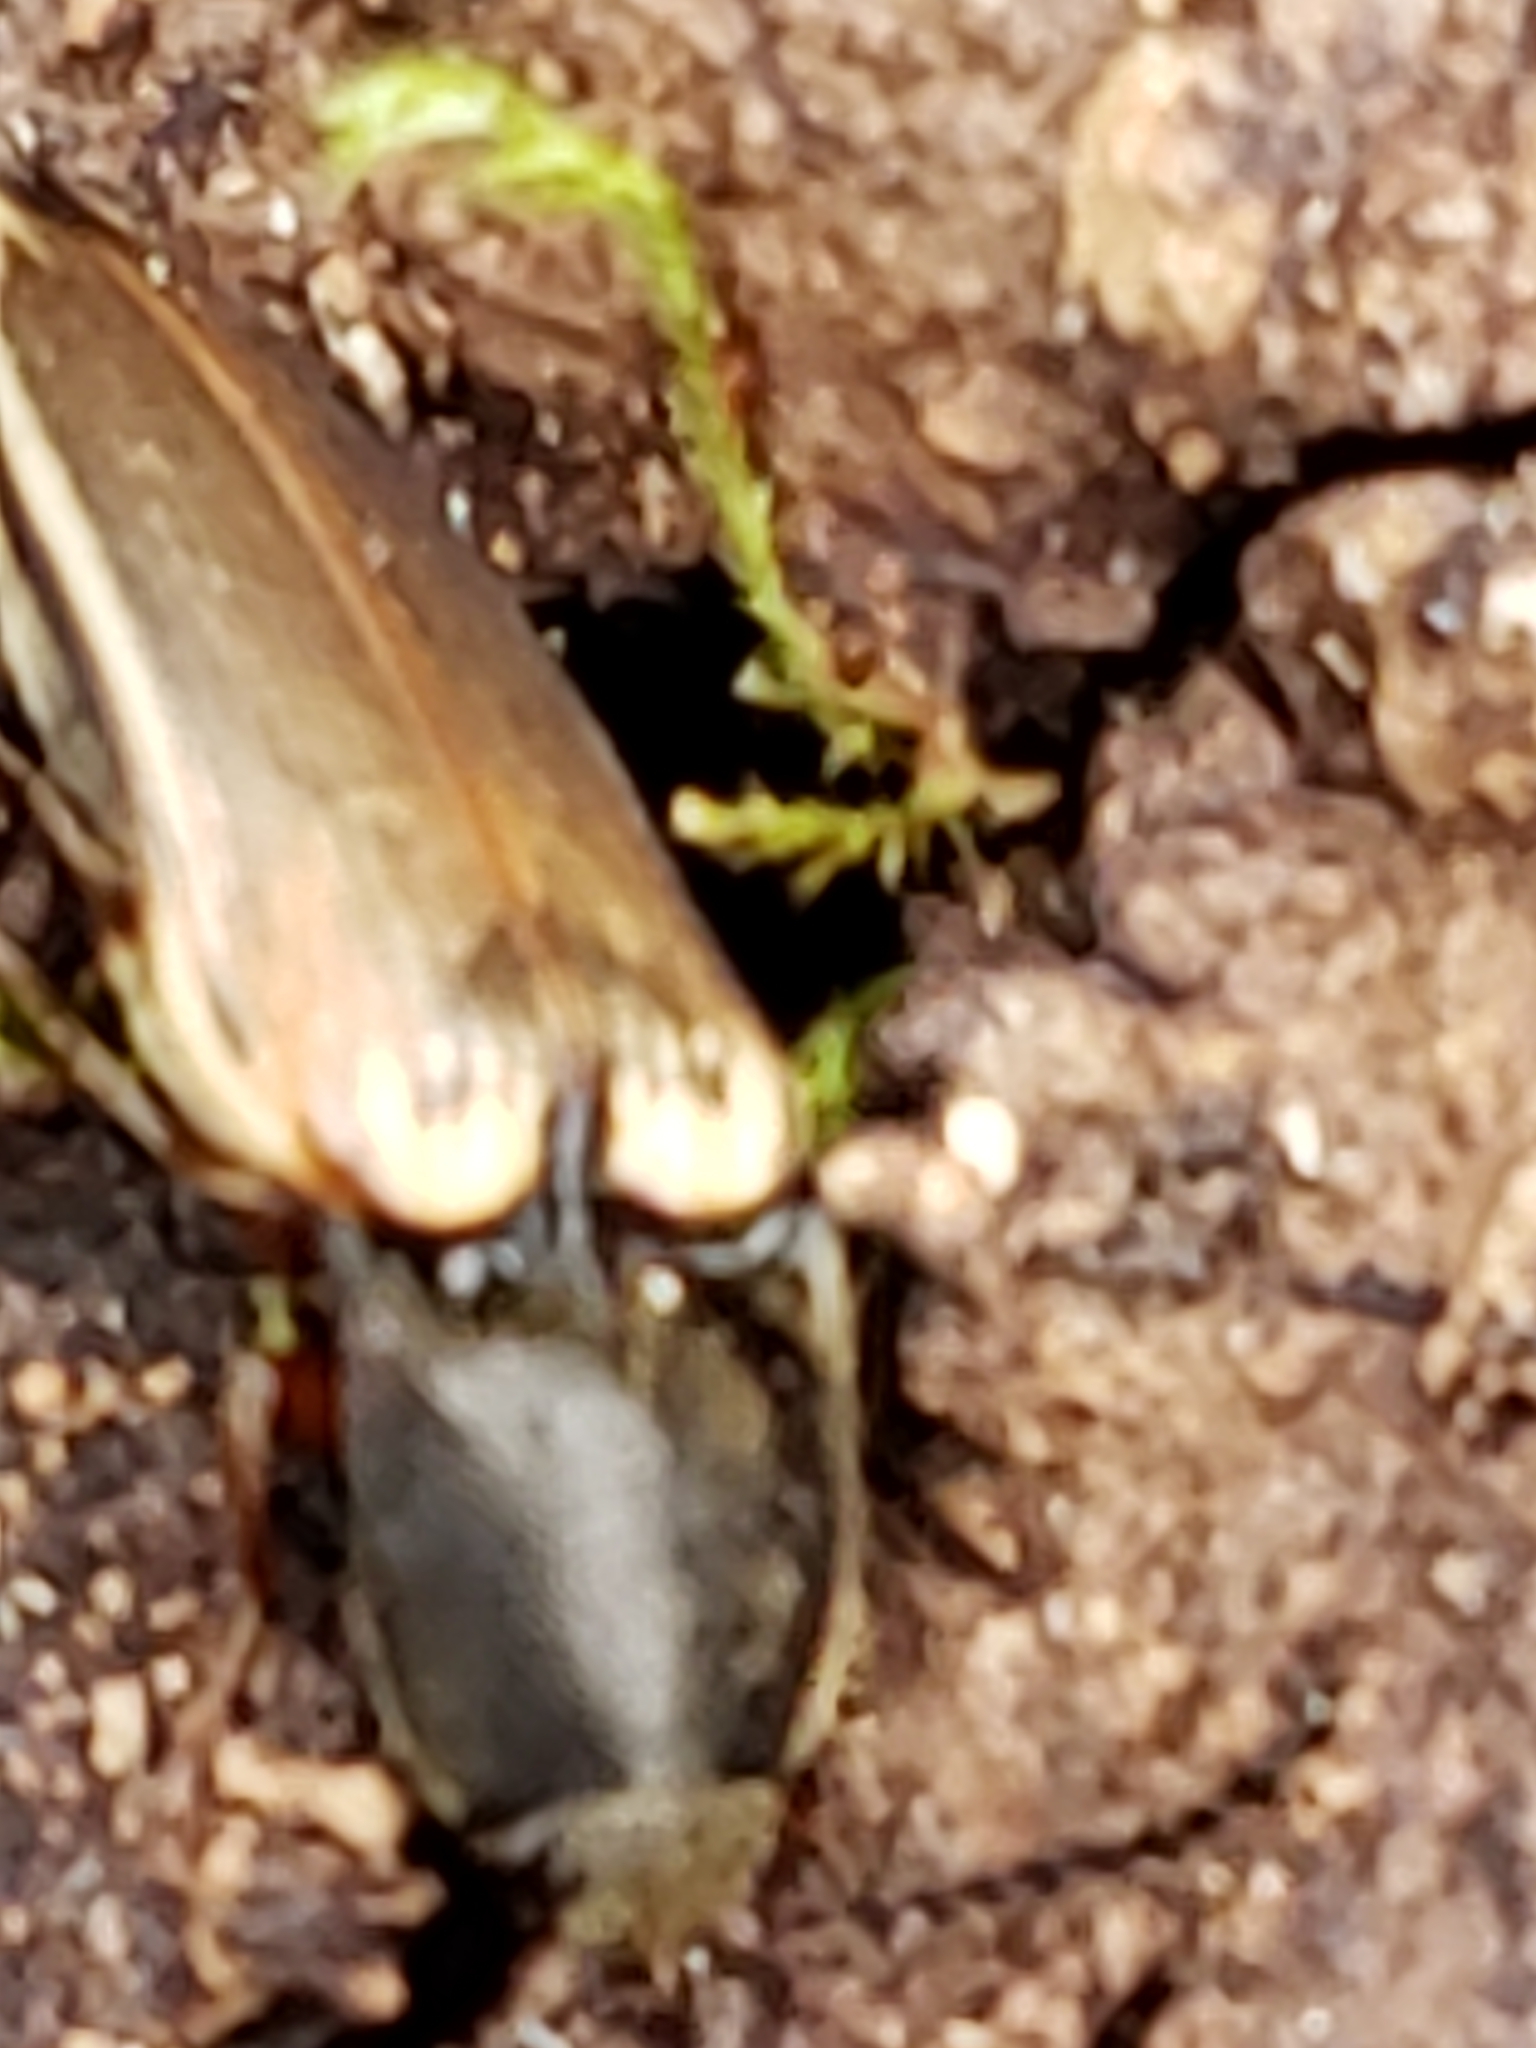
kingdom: Animalia
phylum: Arthropoda
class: Insecta
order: Coleoptera
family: Elateridae
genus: Ampedus
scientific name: Ampedus nigricollis
